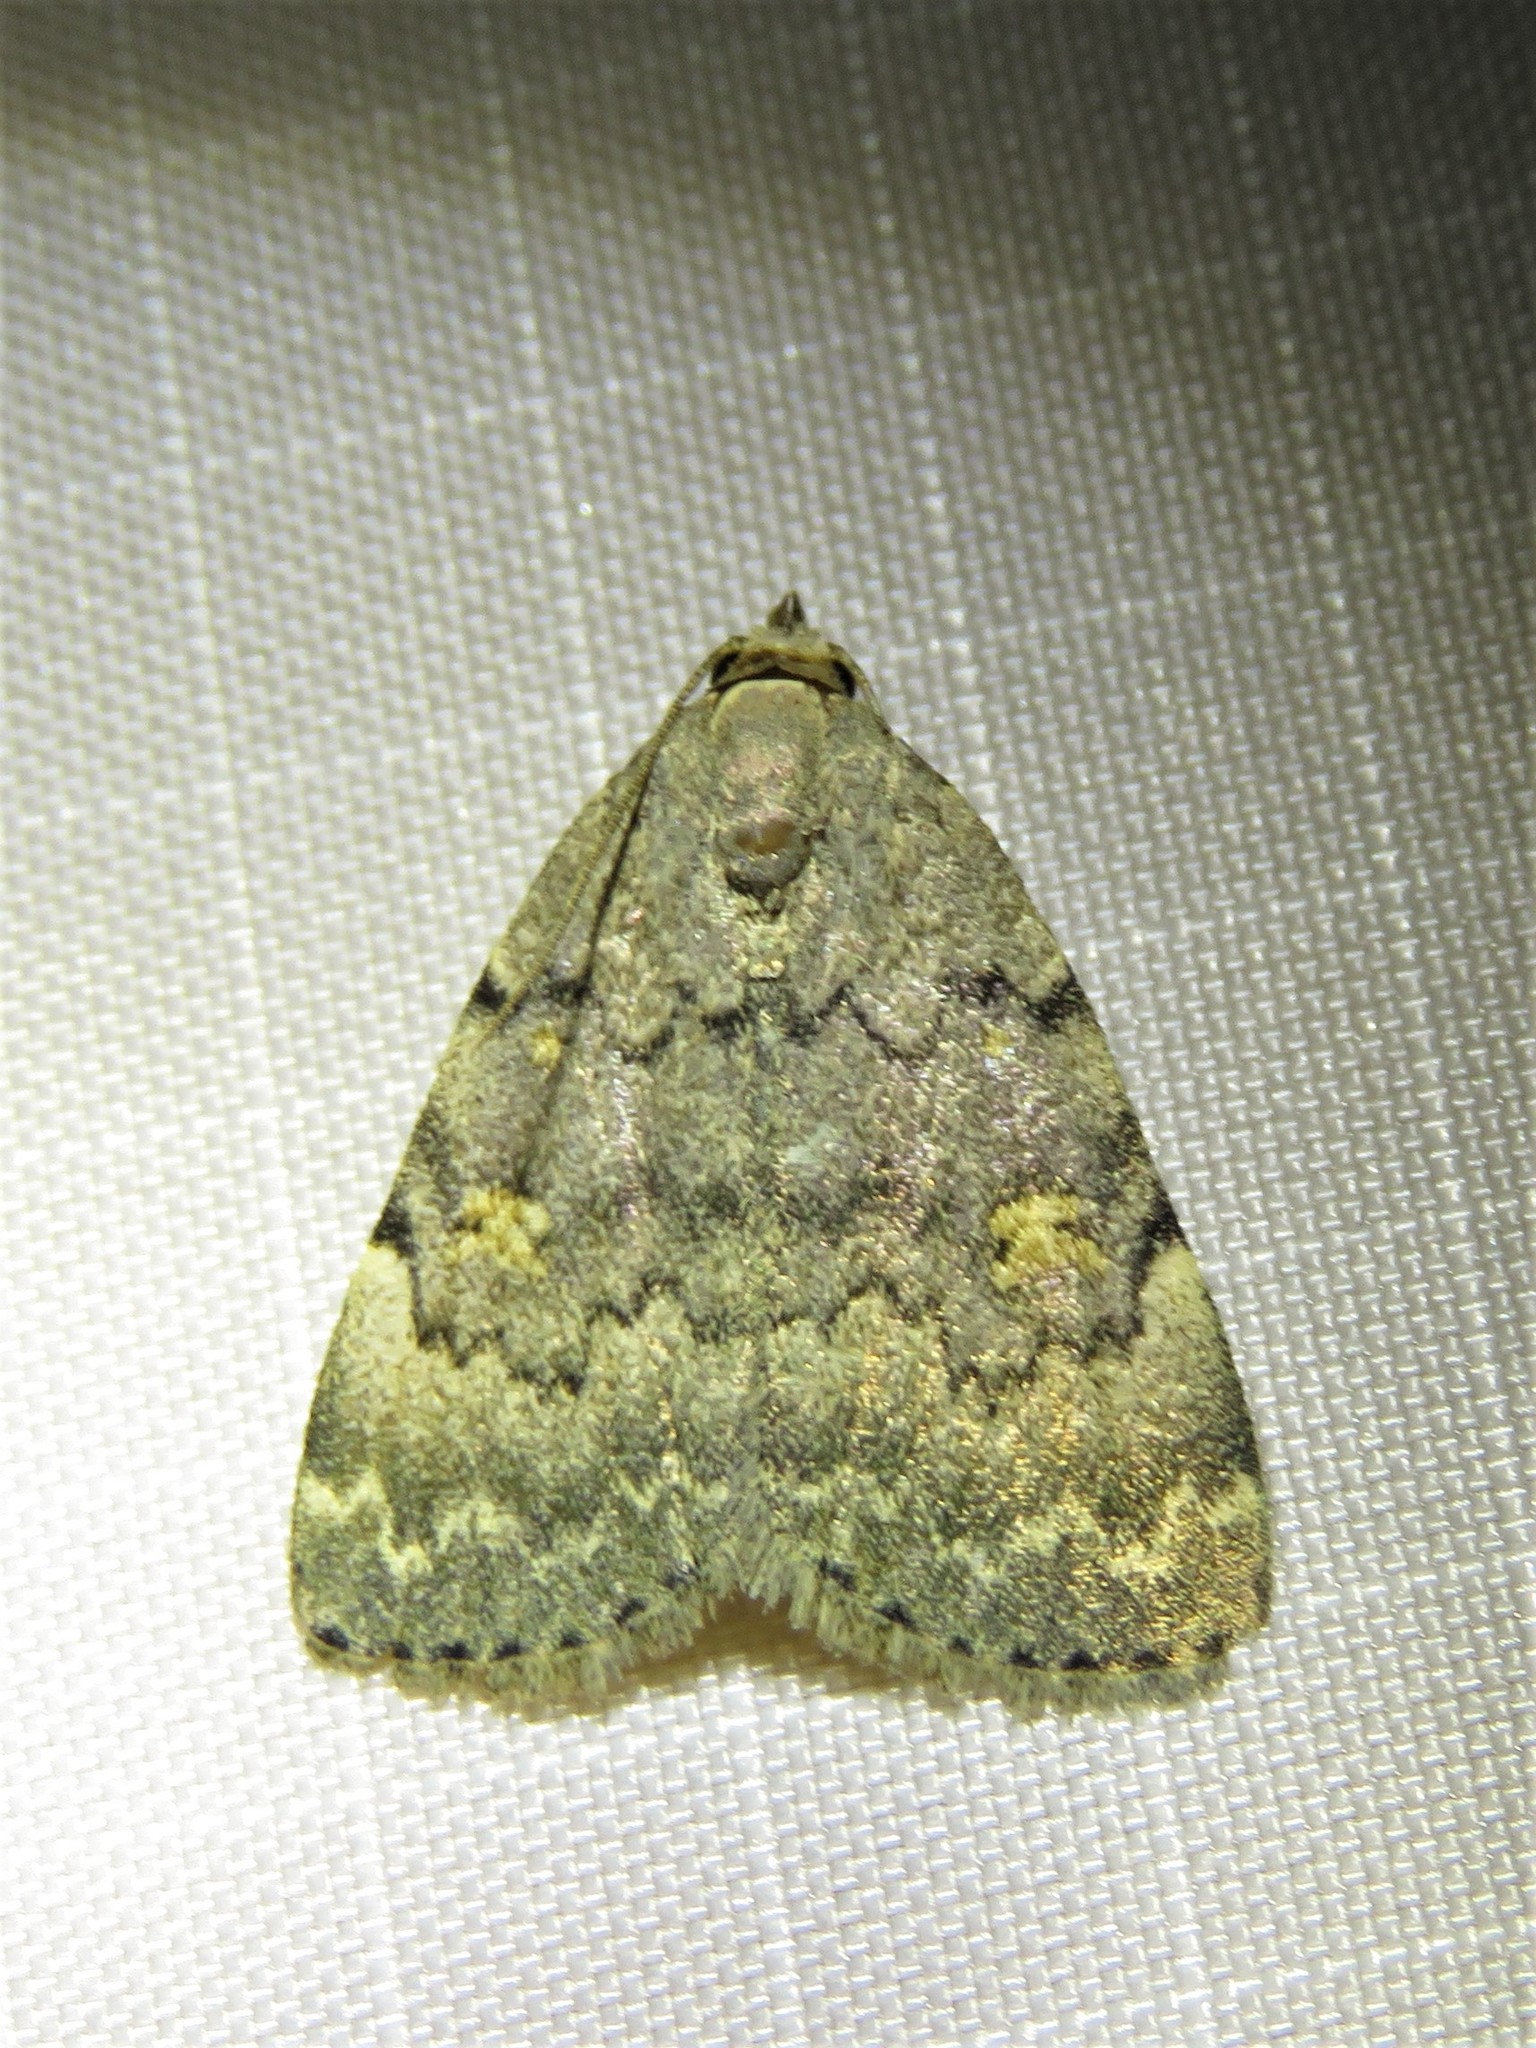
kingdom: Animalia
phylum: Arthropoda
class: Insecta
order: Lepidoptera
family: Erebidae
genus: Idia
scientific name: Idia aemula
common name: Common idia moth
